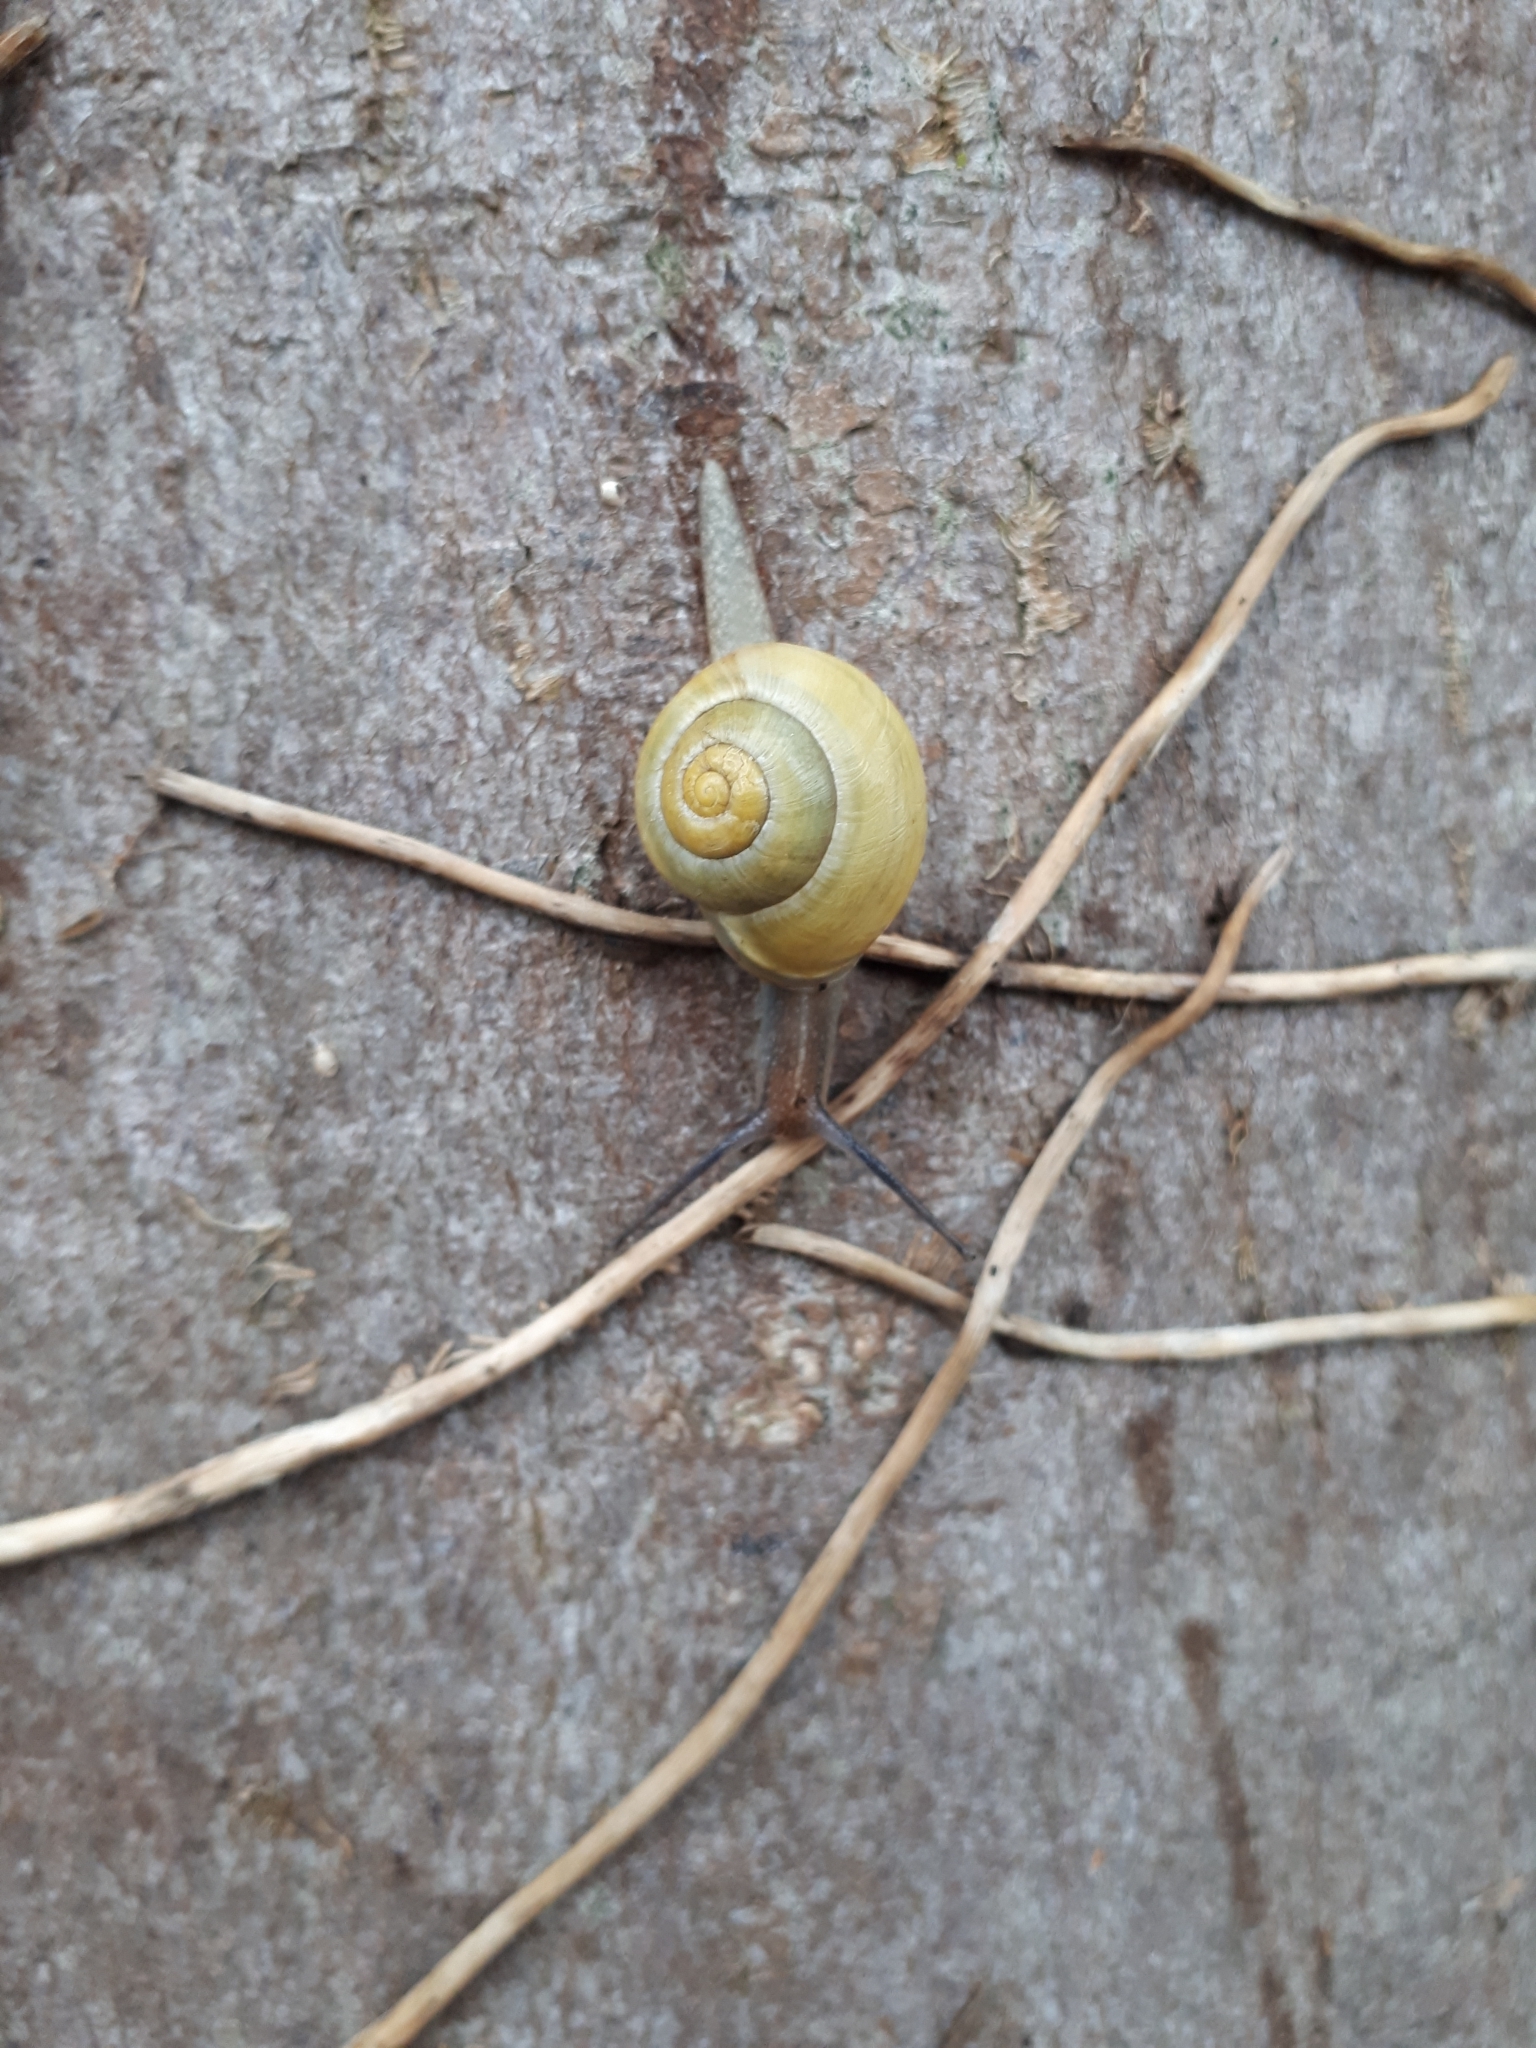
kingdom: Animalia
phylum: Mollusca
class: Gastropoda
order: Stylommatophora
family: Helicidae
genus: Cepaea
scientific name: Cepaea hortensis
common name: White-lip gardensnail
